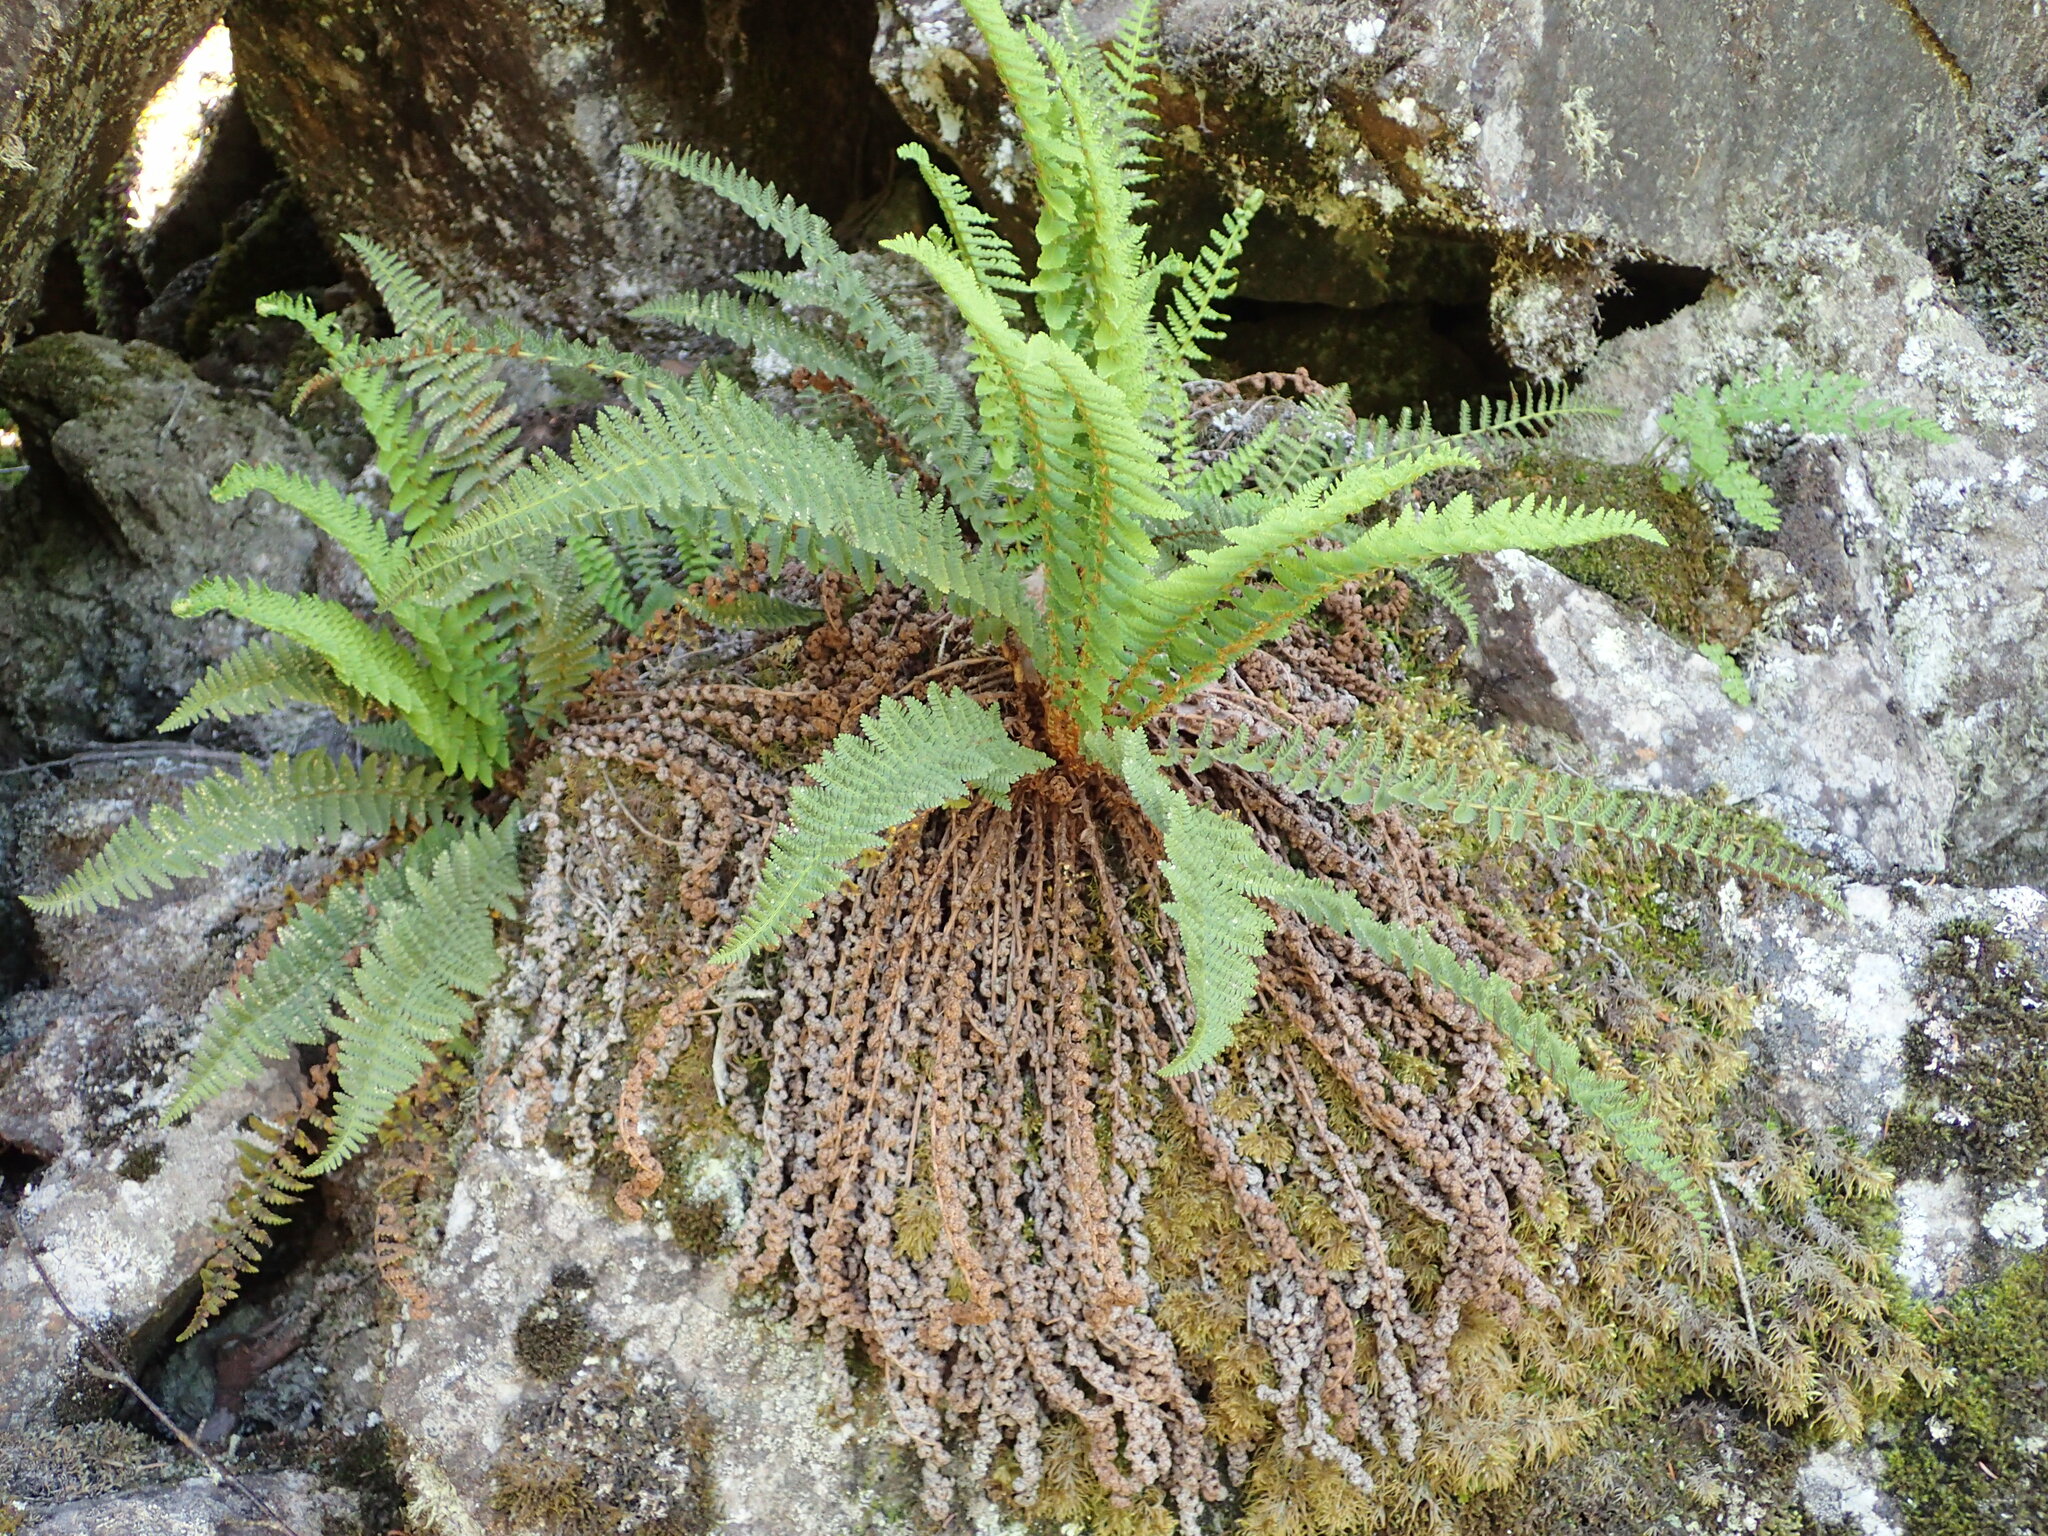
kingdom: Plantae
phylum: Tracheophyta
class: Polypodiopsida
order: Polypodiales
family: Dryopteridaceae
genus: Dryopteris
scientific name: Dryopteris fragrans
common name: Fragrant wood fern
